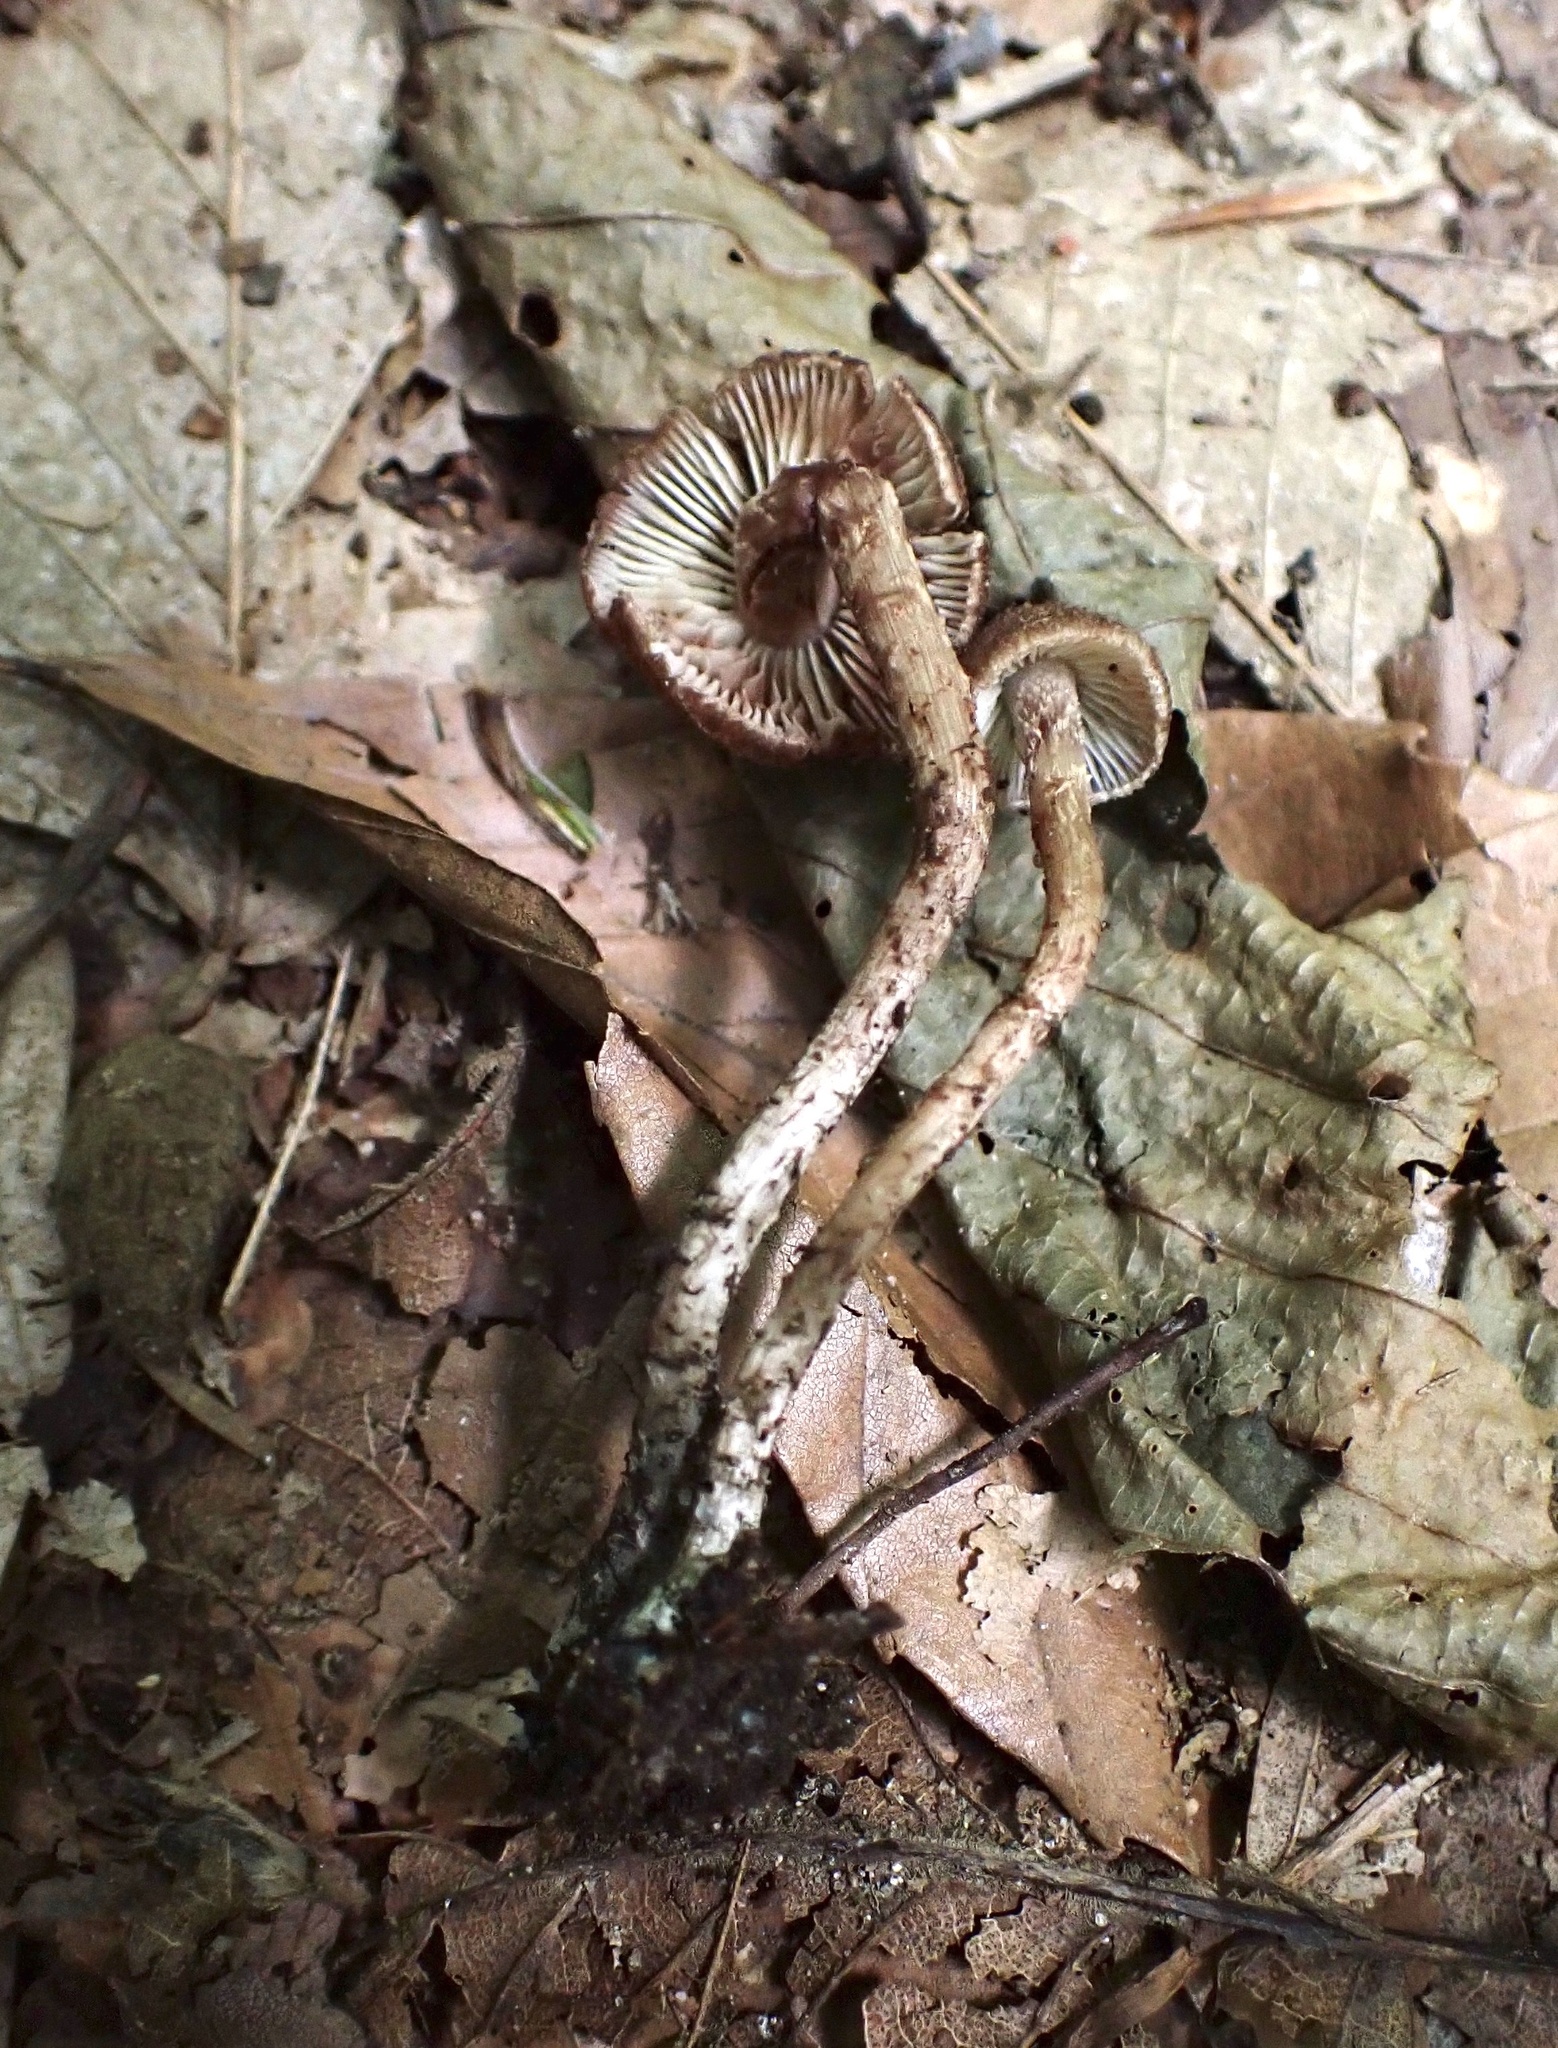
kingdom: Fungi
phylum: Basidiomycota
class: Agaricomycetes
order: Agaricales
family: Inocybaceae
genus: Inosperma
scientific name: Inosperma mutatum
